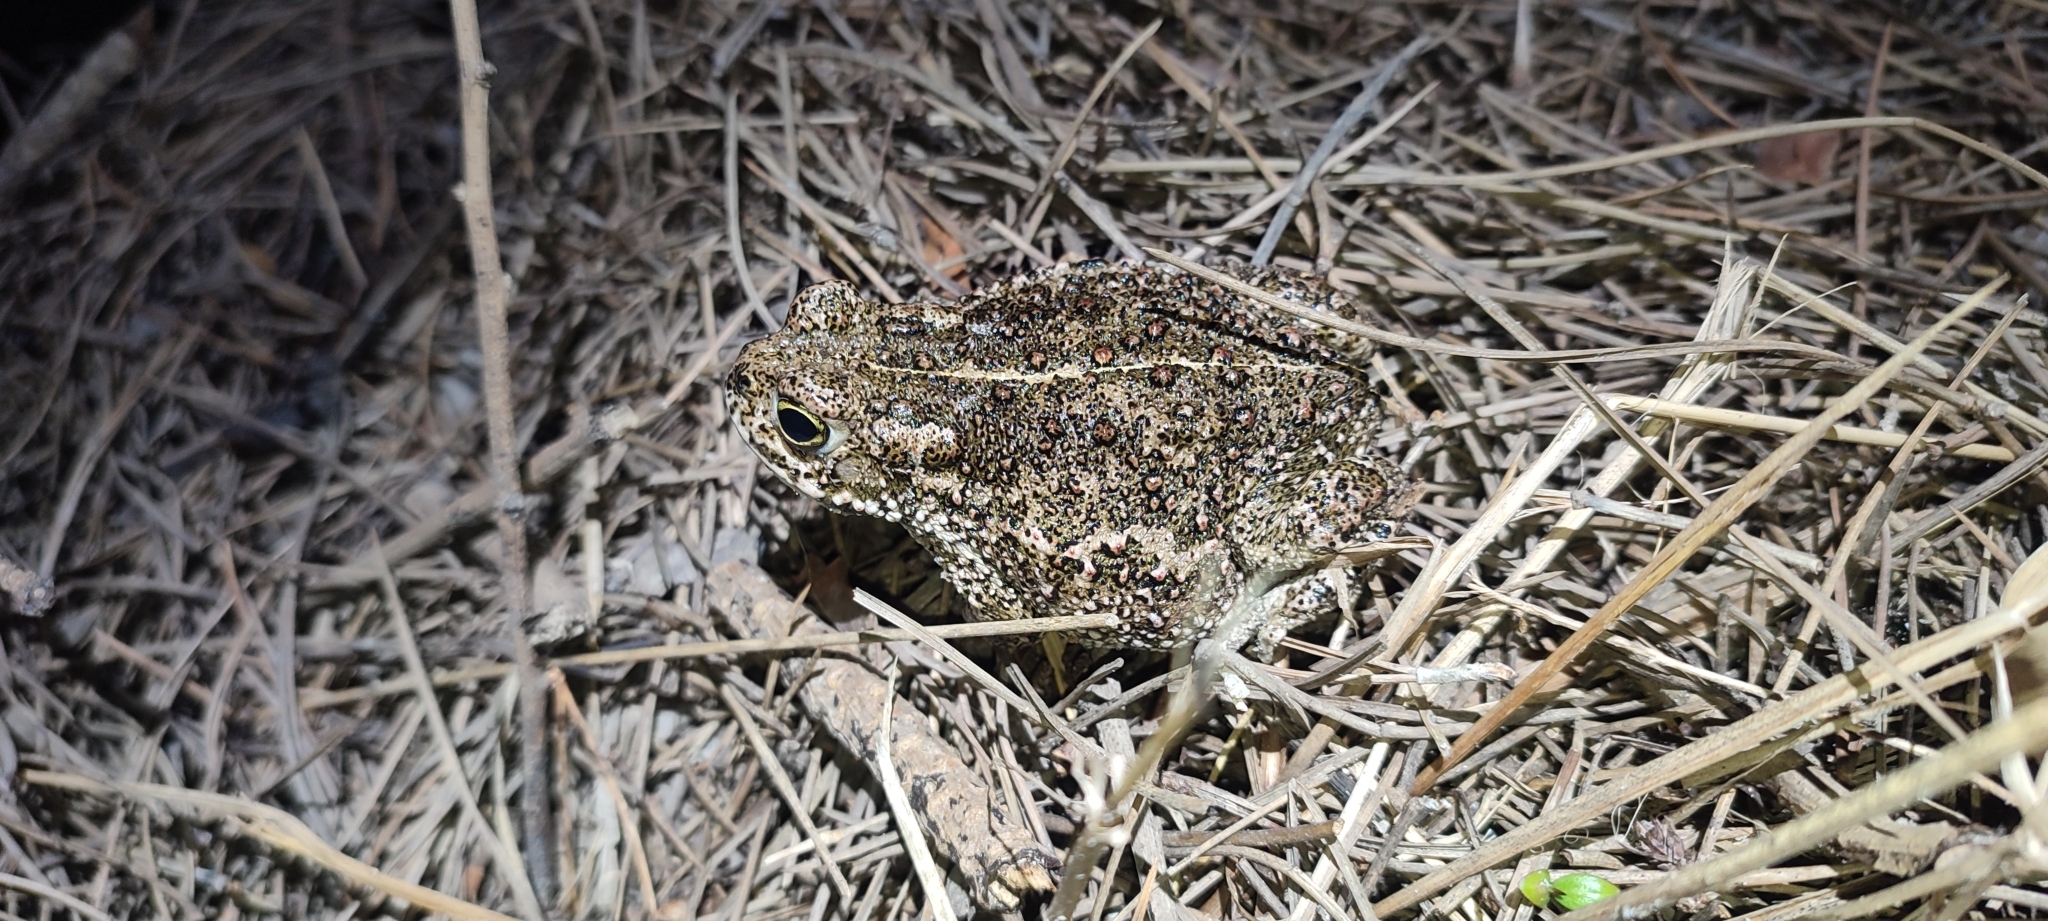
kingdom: Animalia
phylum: Chordata
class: Amphibia
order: Anura
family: Bufonidae
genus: Epidalea
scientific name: Epidalea calamita
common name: Natterjack toad
